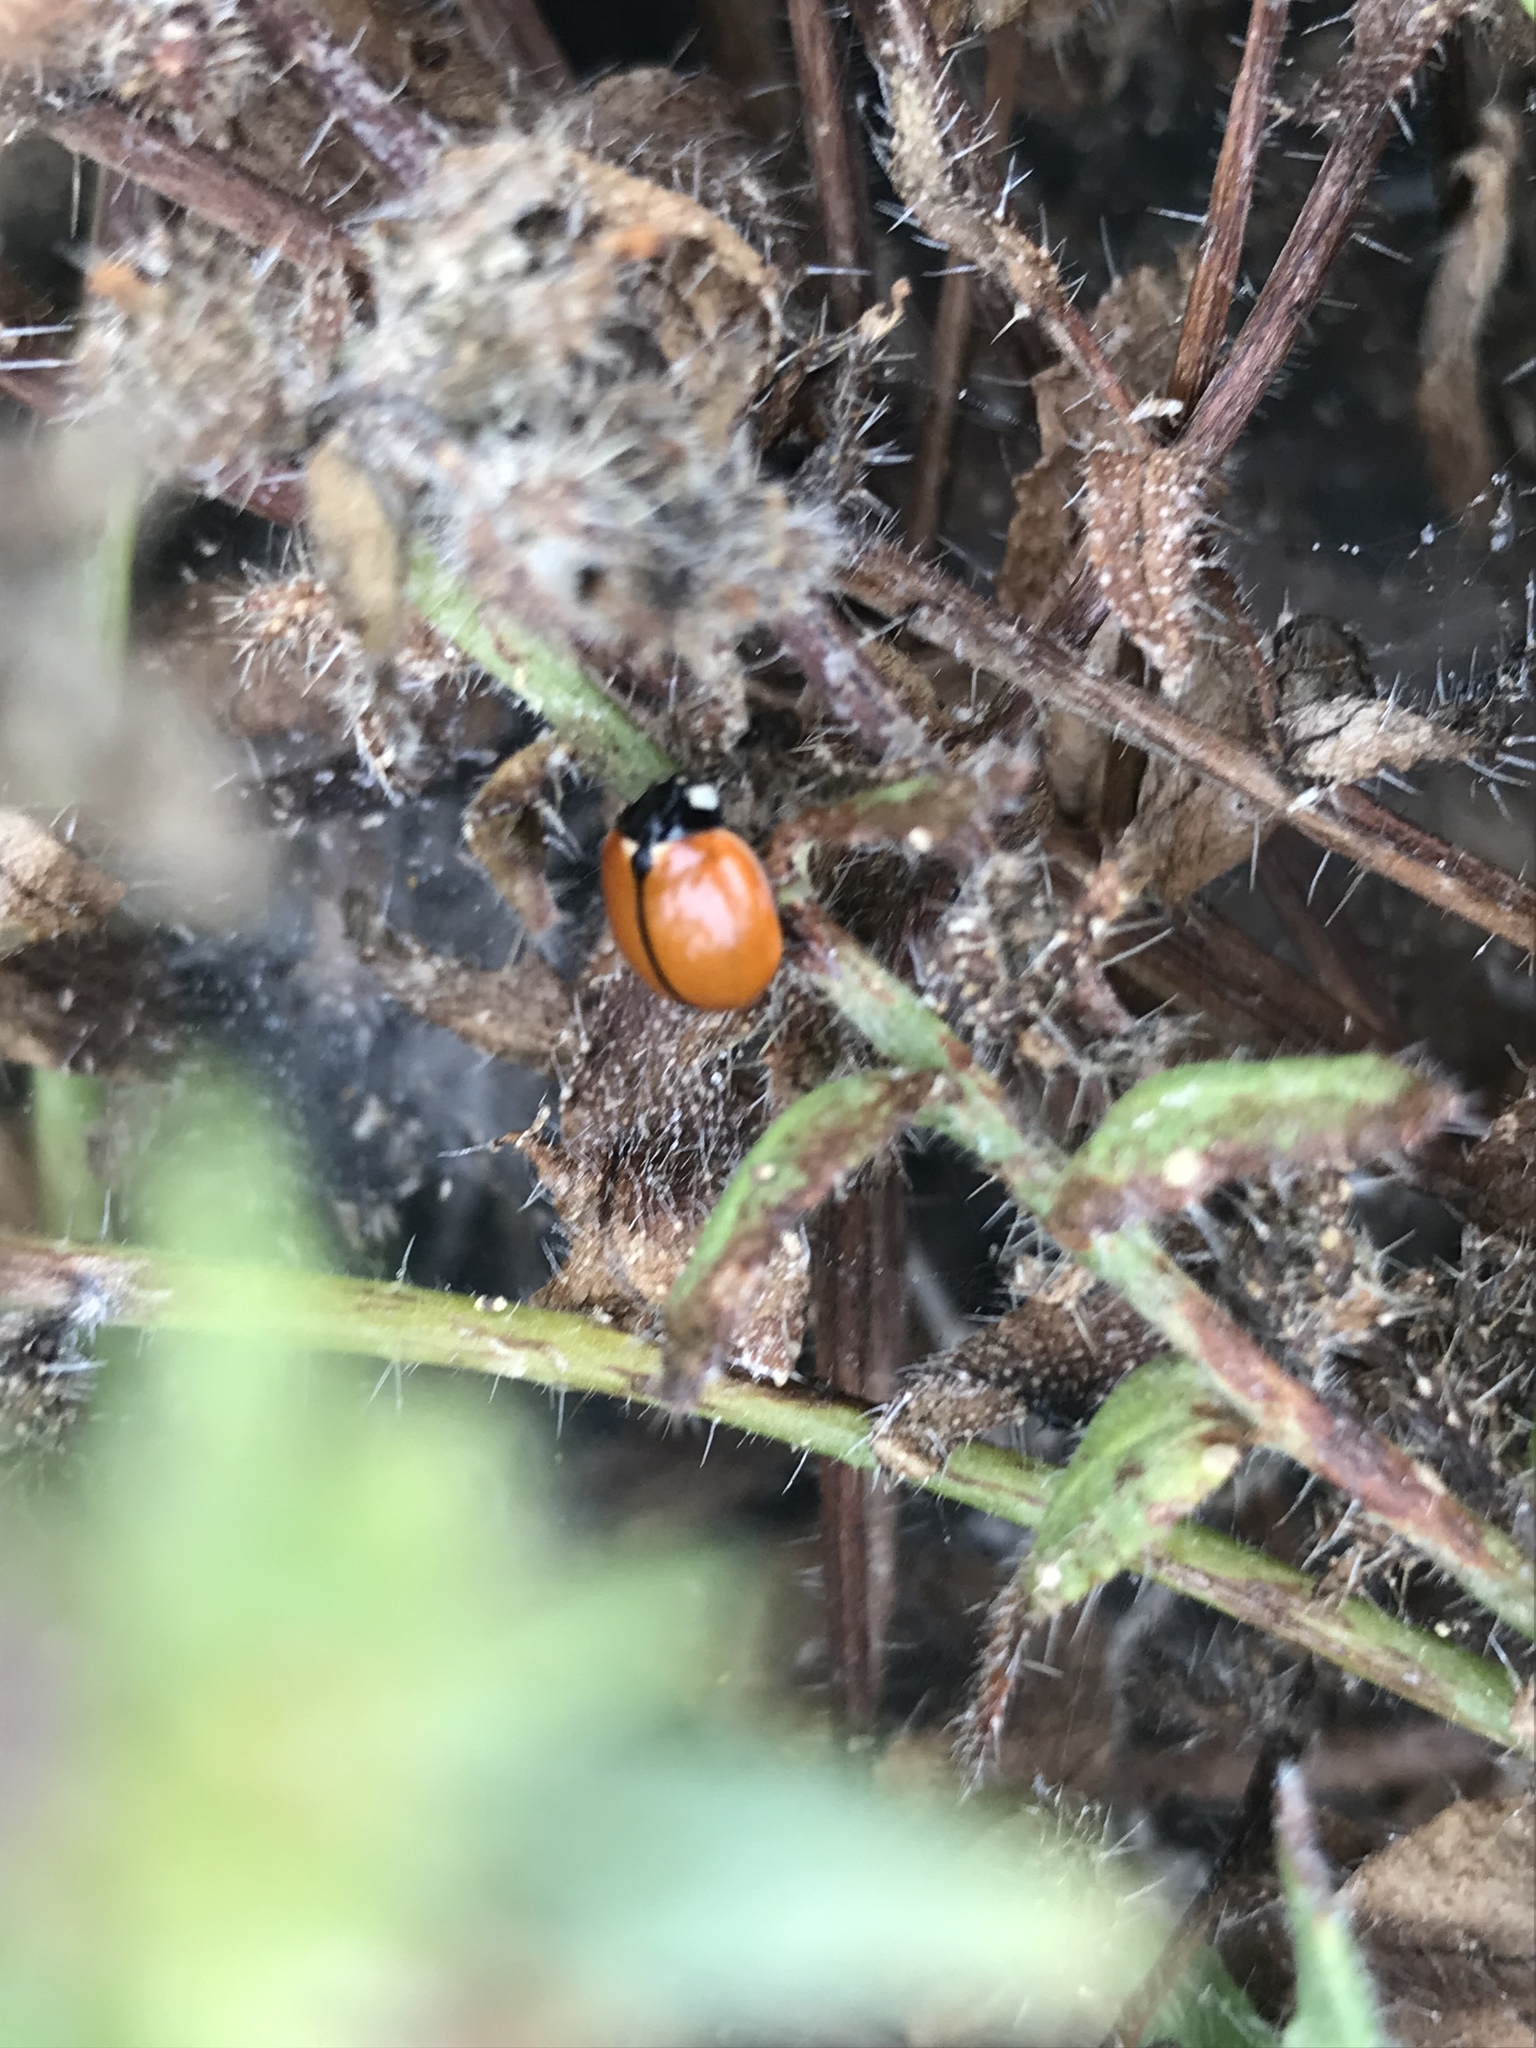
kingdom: Animalia
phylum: Arthropoda
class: Insecta
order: Coleoptera
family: Coccinellidae
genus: Coccinella
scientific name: Coccinella californica
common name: Lady beetle
